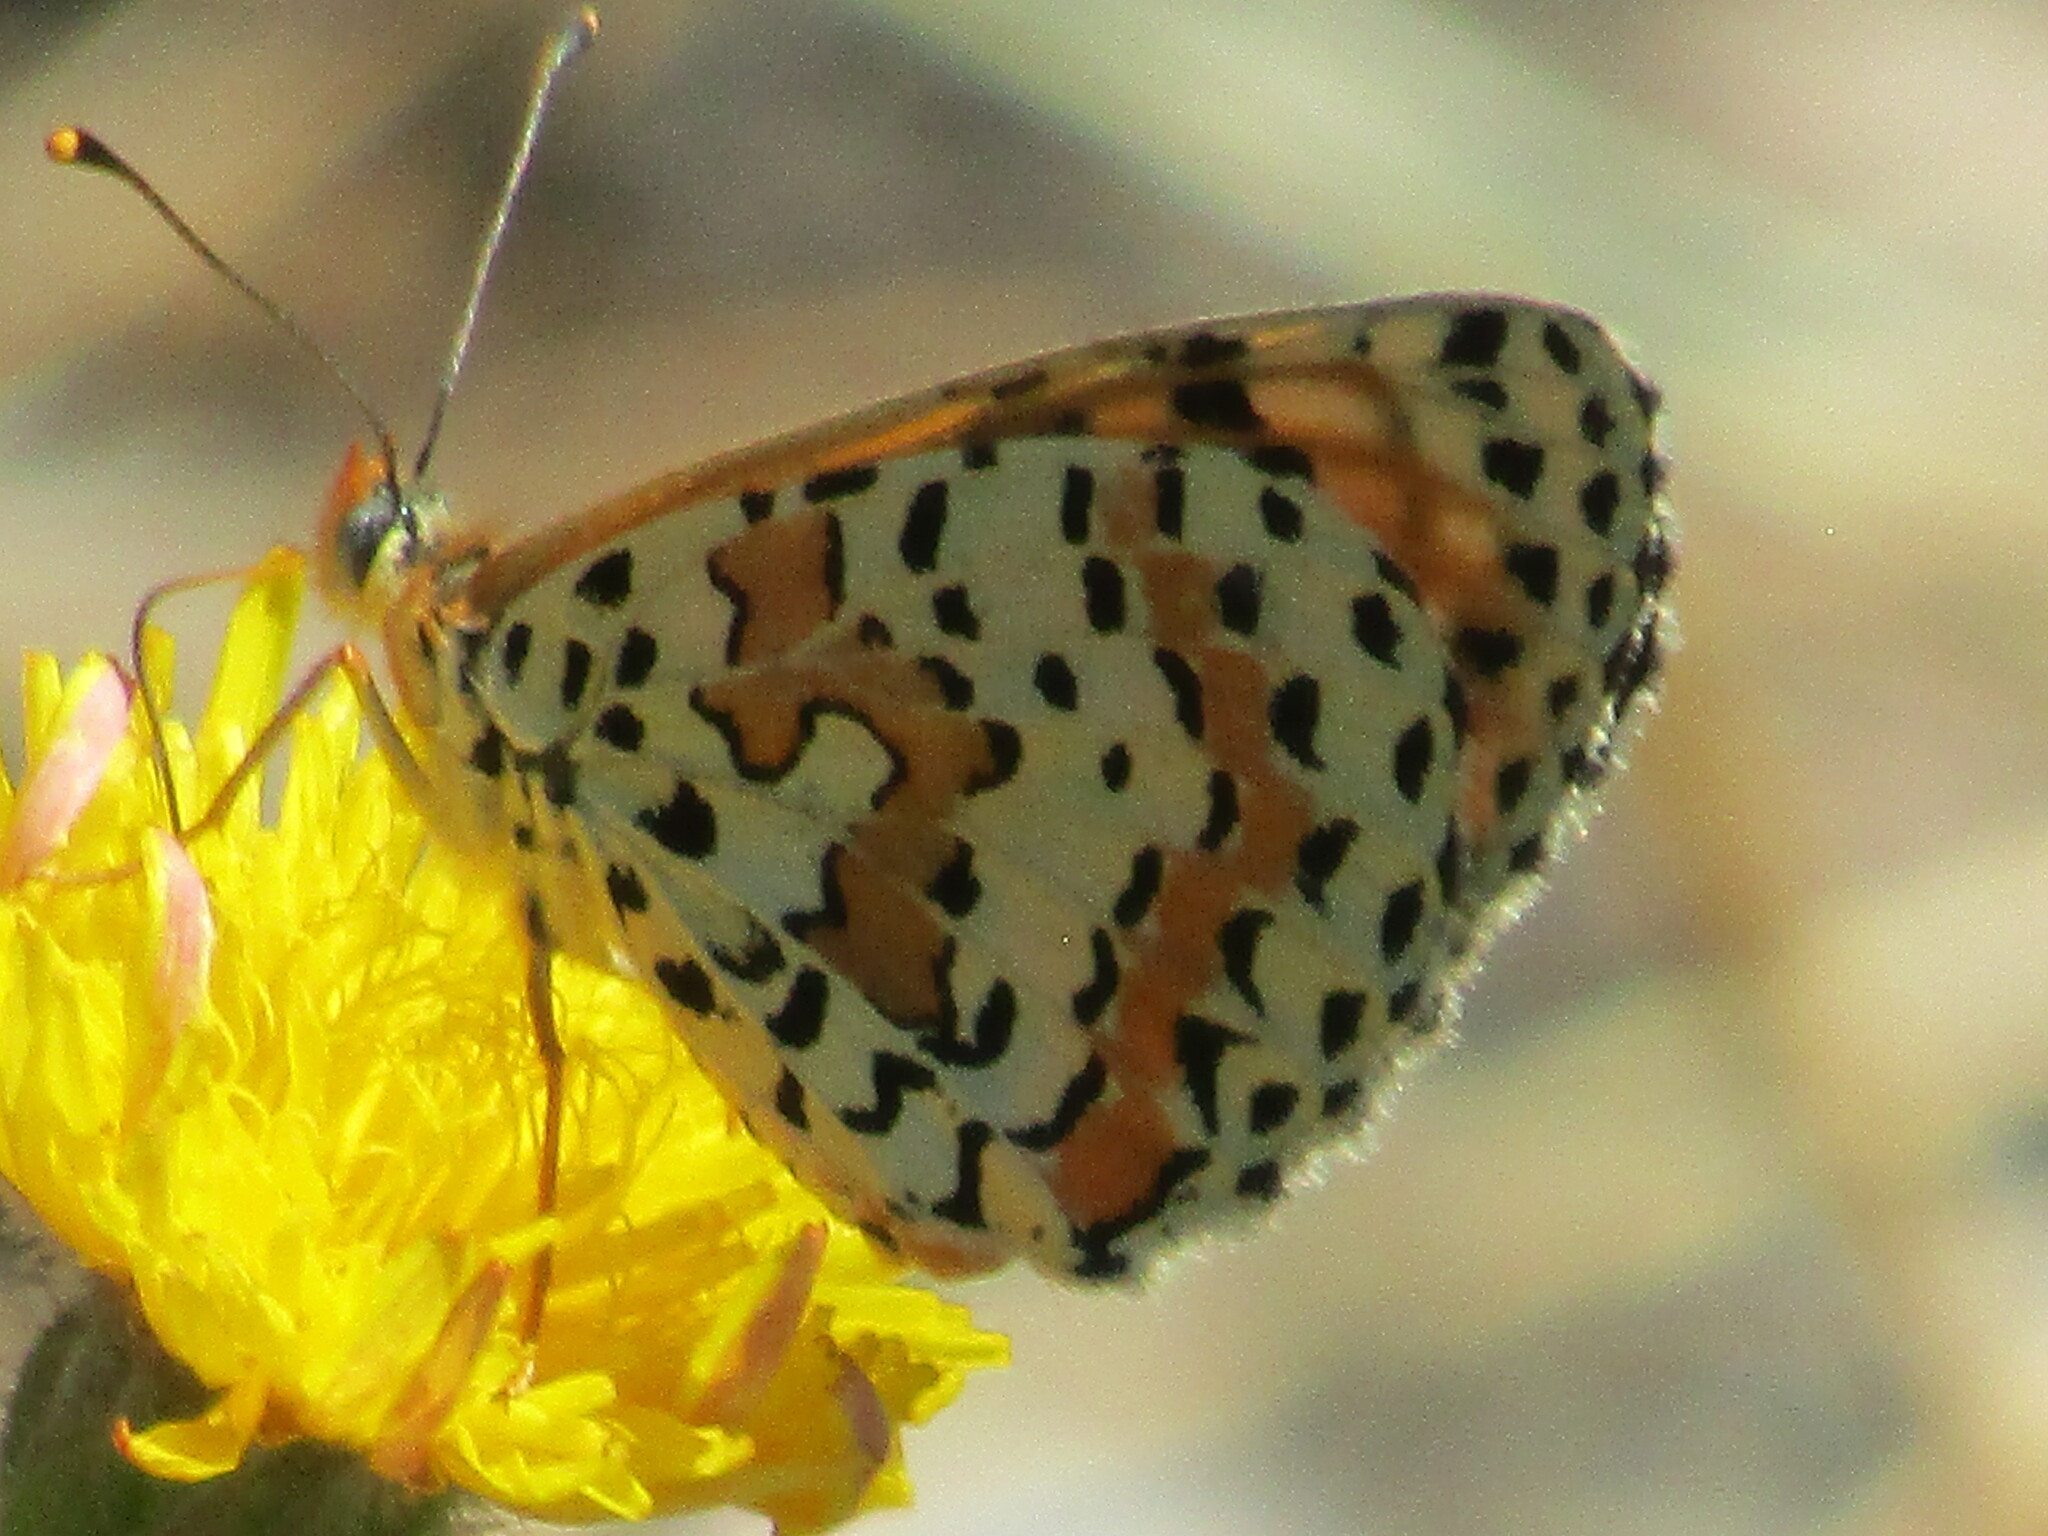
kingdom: Animalia
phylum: Arthropoda
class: Insecta
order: Lepidoptera
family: Nymphalidae
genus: Melitaea
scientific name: Melitaea didyma
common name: Spotted fritillary
